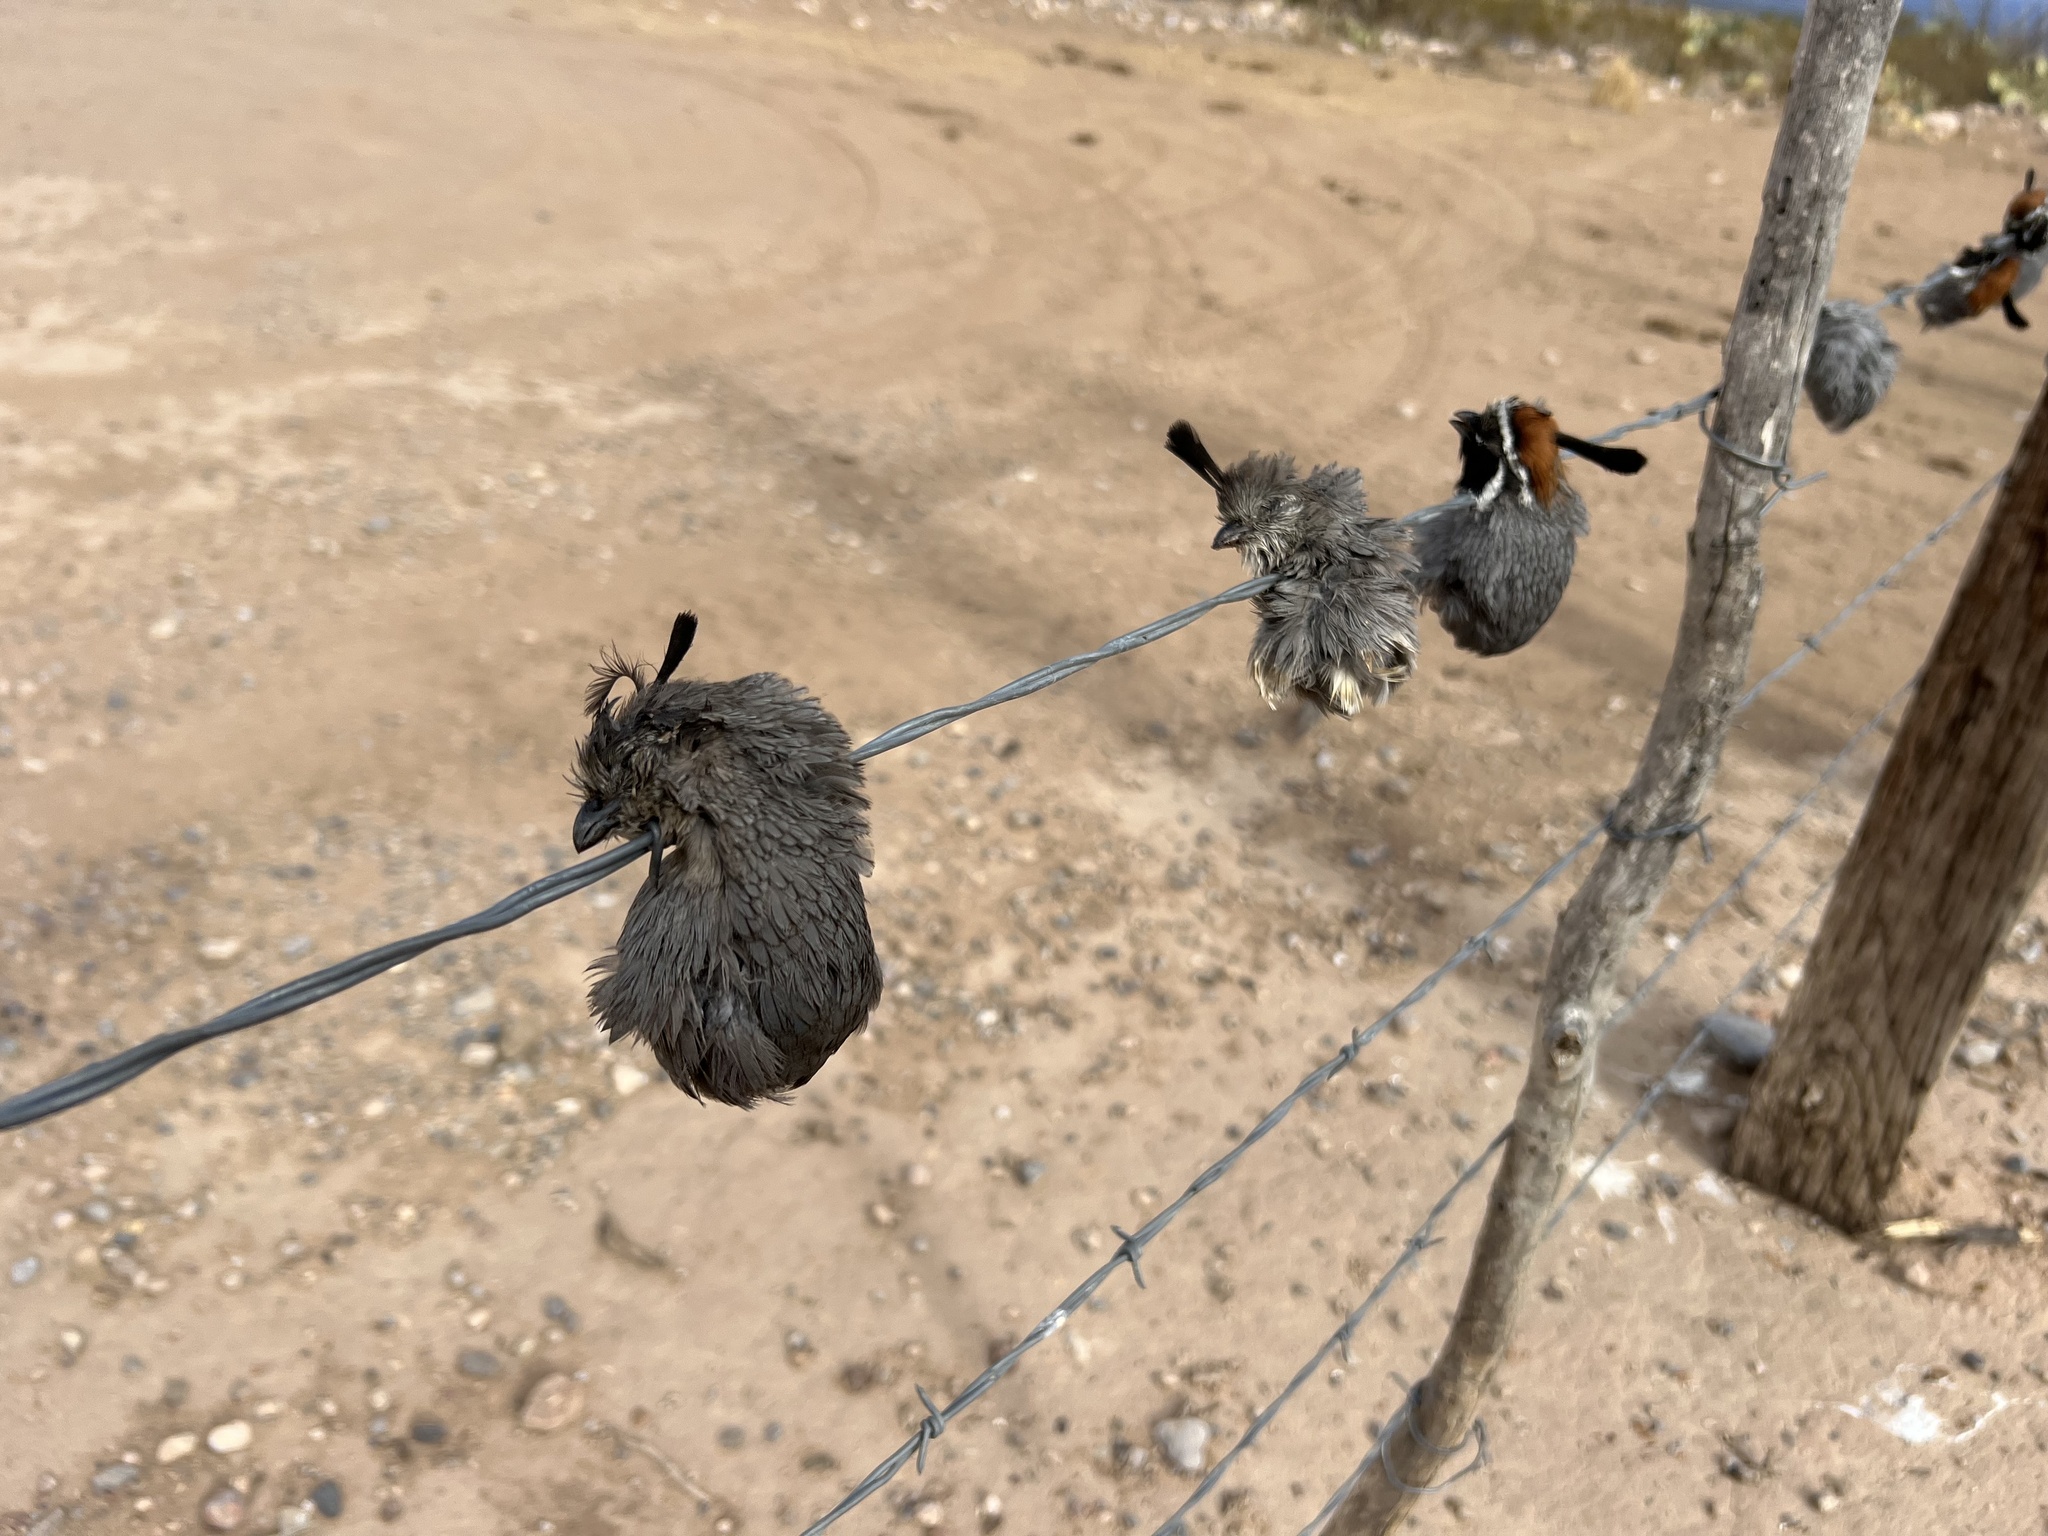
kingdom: Animalia
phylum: Chordata
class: Aves
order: Galliformes
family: Odontophoridae
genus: Callipepla
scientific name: Callipepla gambelii
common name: Gambel's quail
